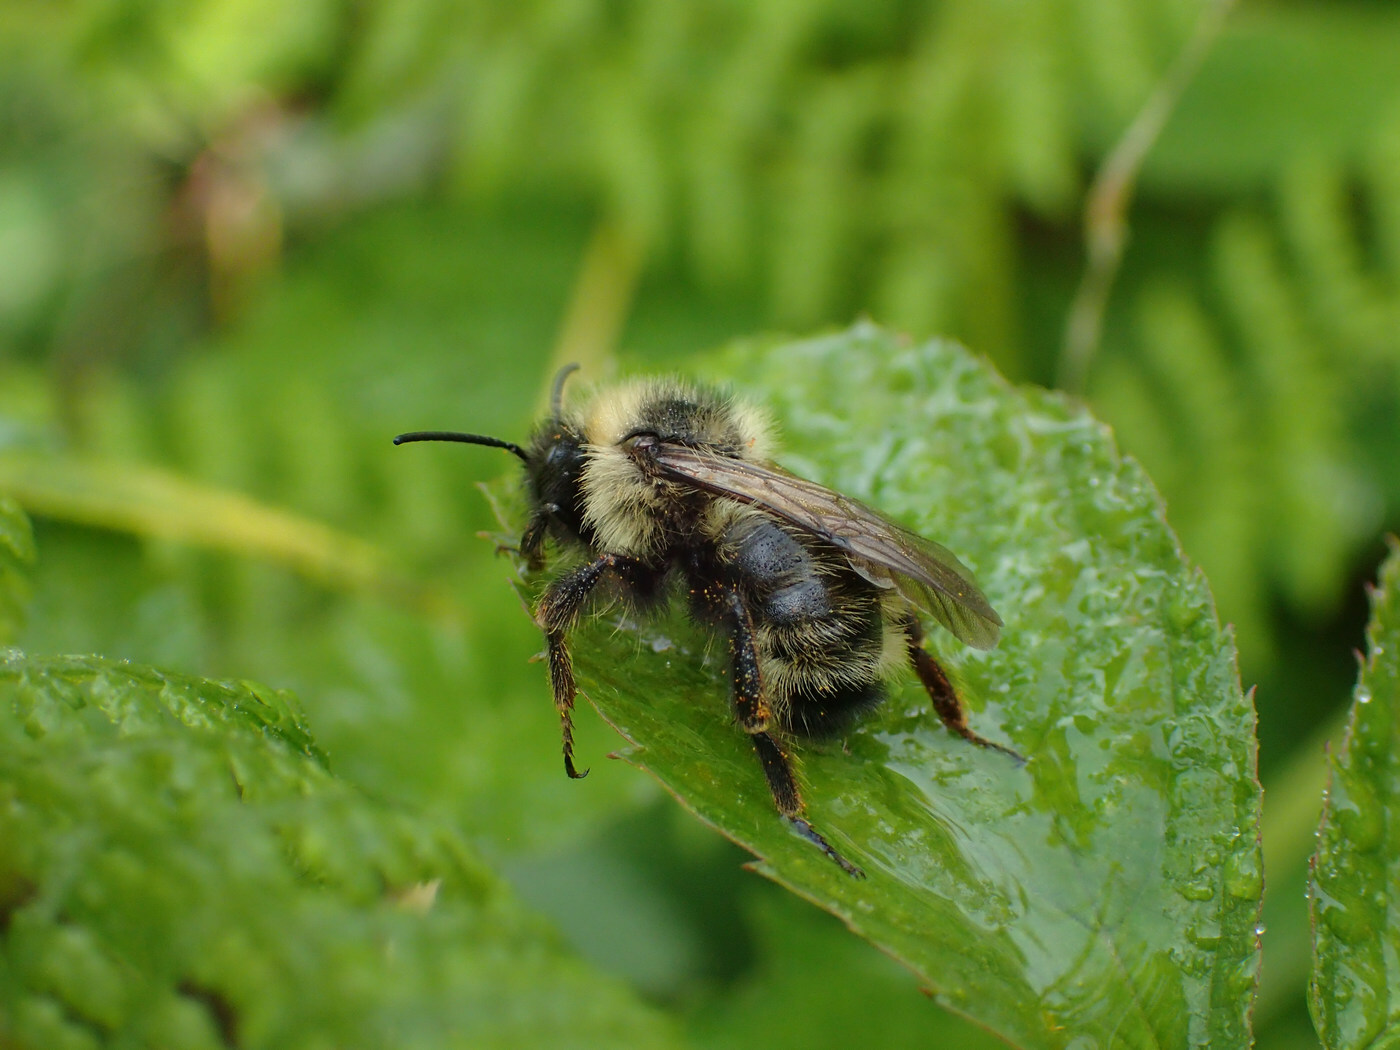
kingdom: Animalia
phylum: Arthropoda
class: Insecta
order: Hymenoptera
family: Apidae
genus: Bombus
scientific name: Bombus flavidus
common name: Fernald cuckoo bumble bee
